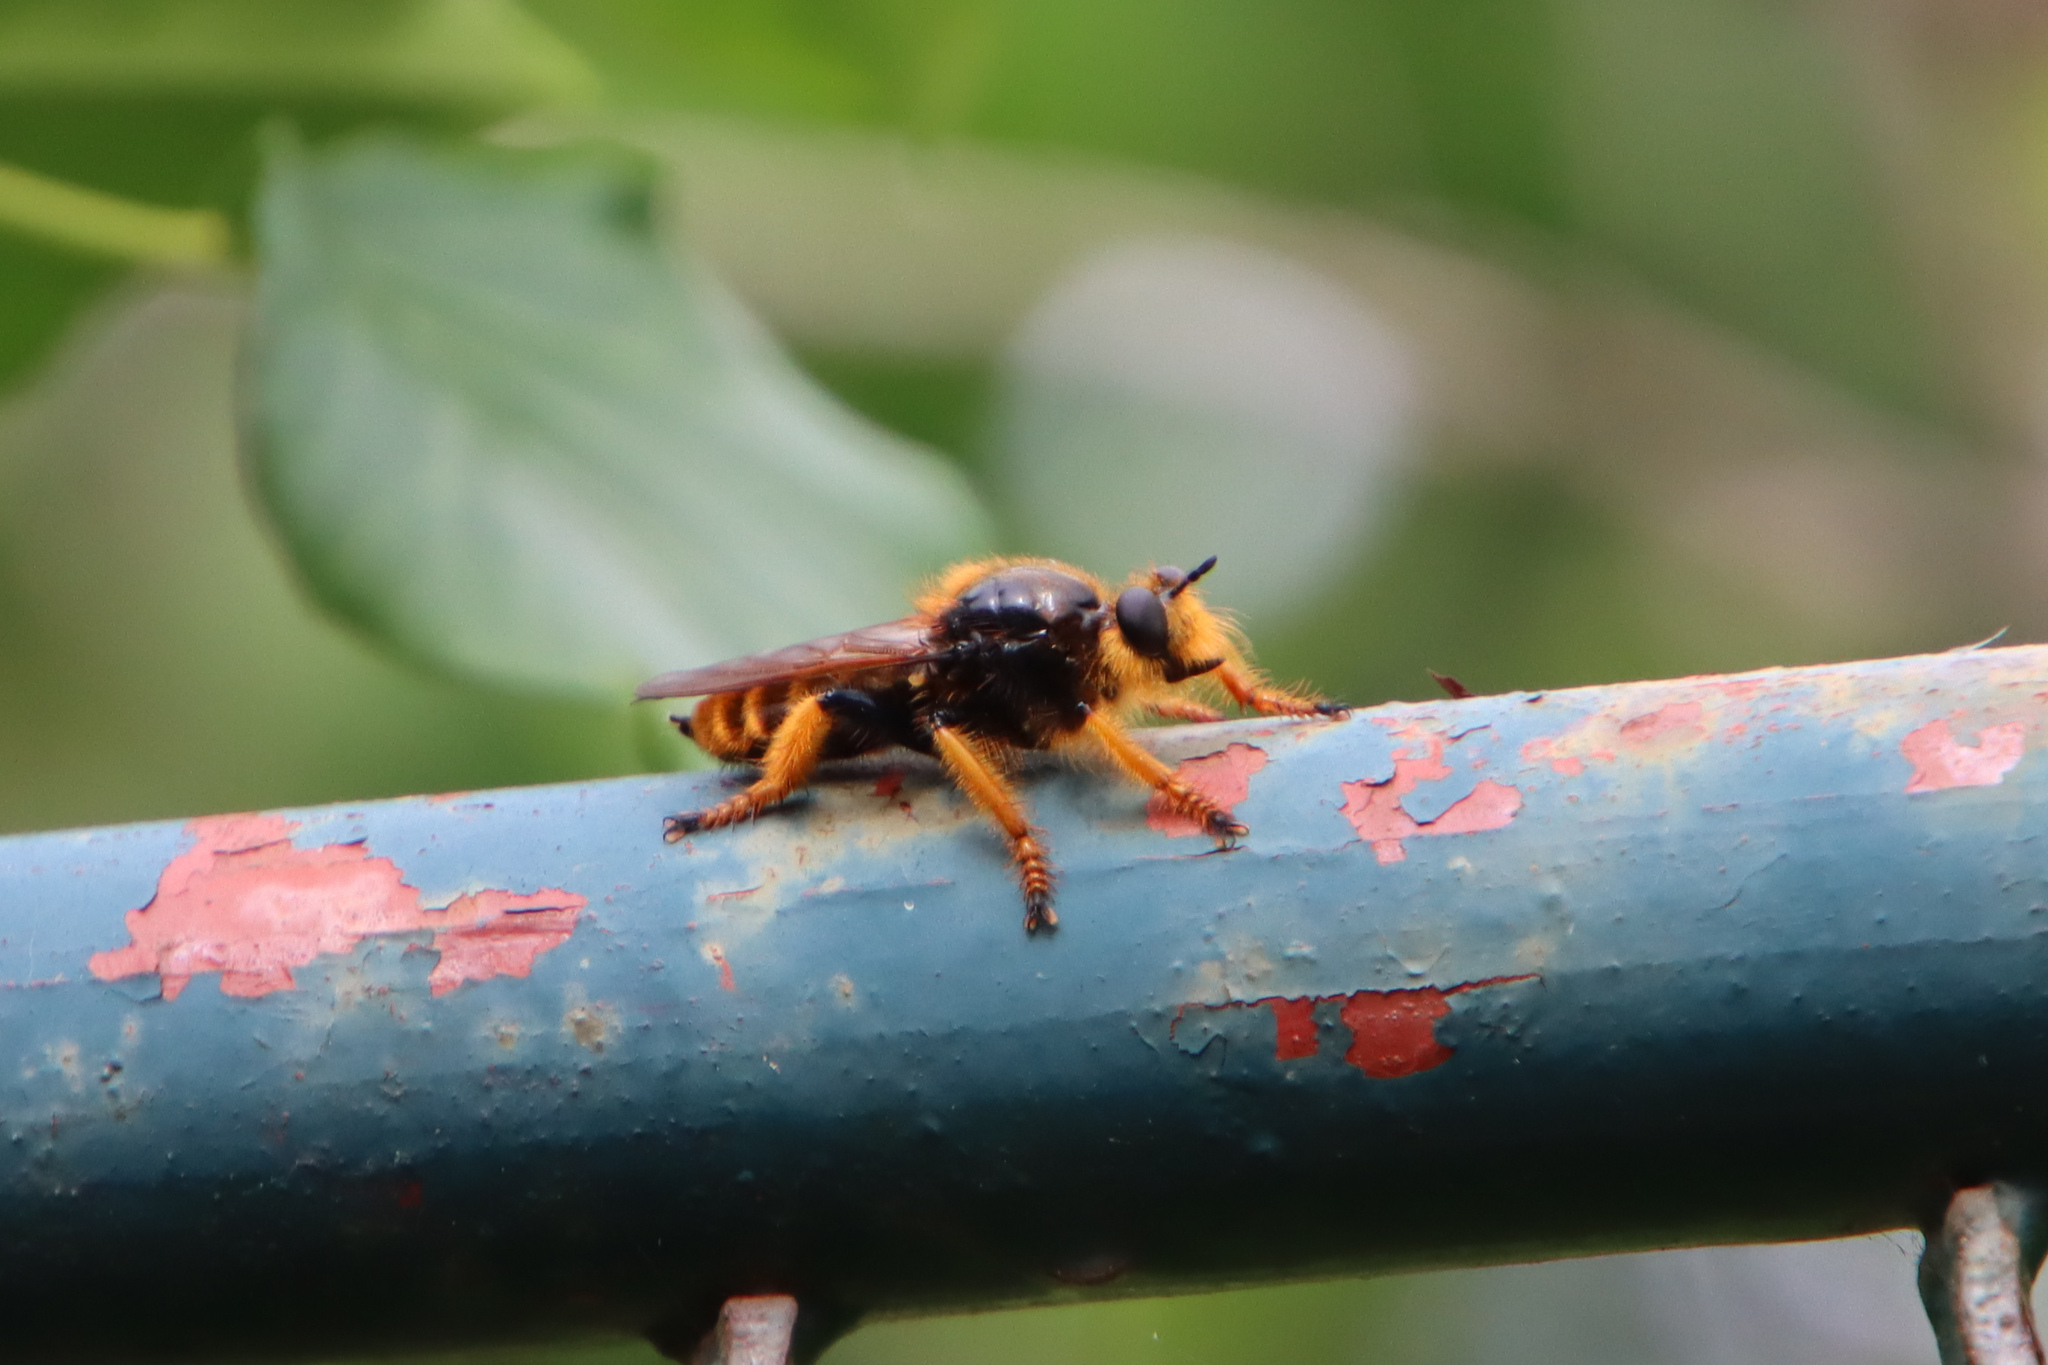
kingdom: Animalia
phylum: Arthropoda
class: Insecta
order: Diptera
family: Asilidae
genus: Pogonosoma
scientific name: Pogonosoma maroccanum
